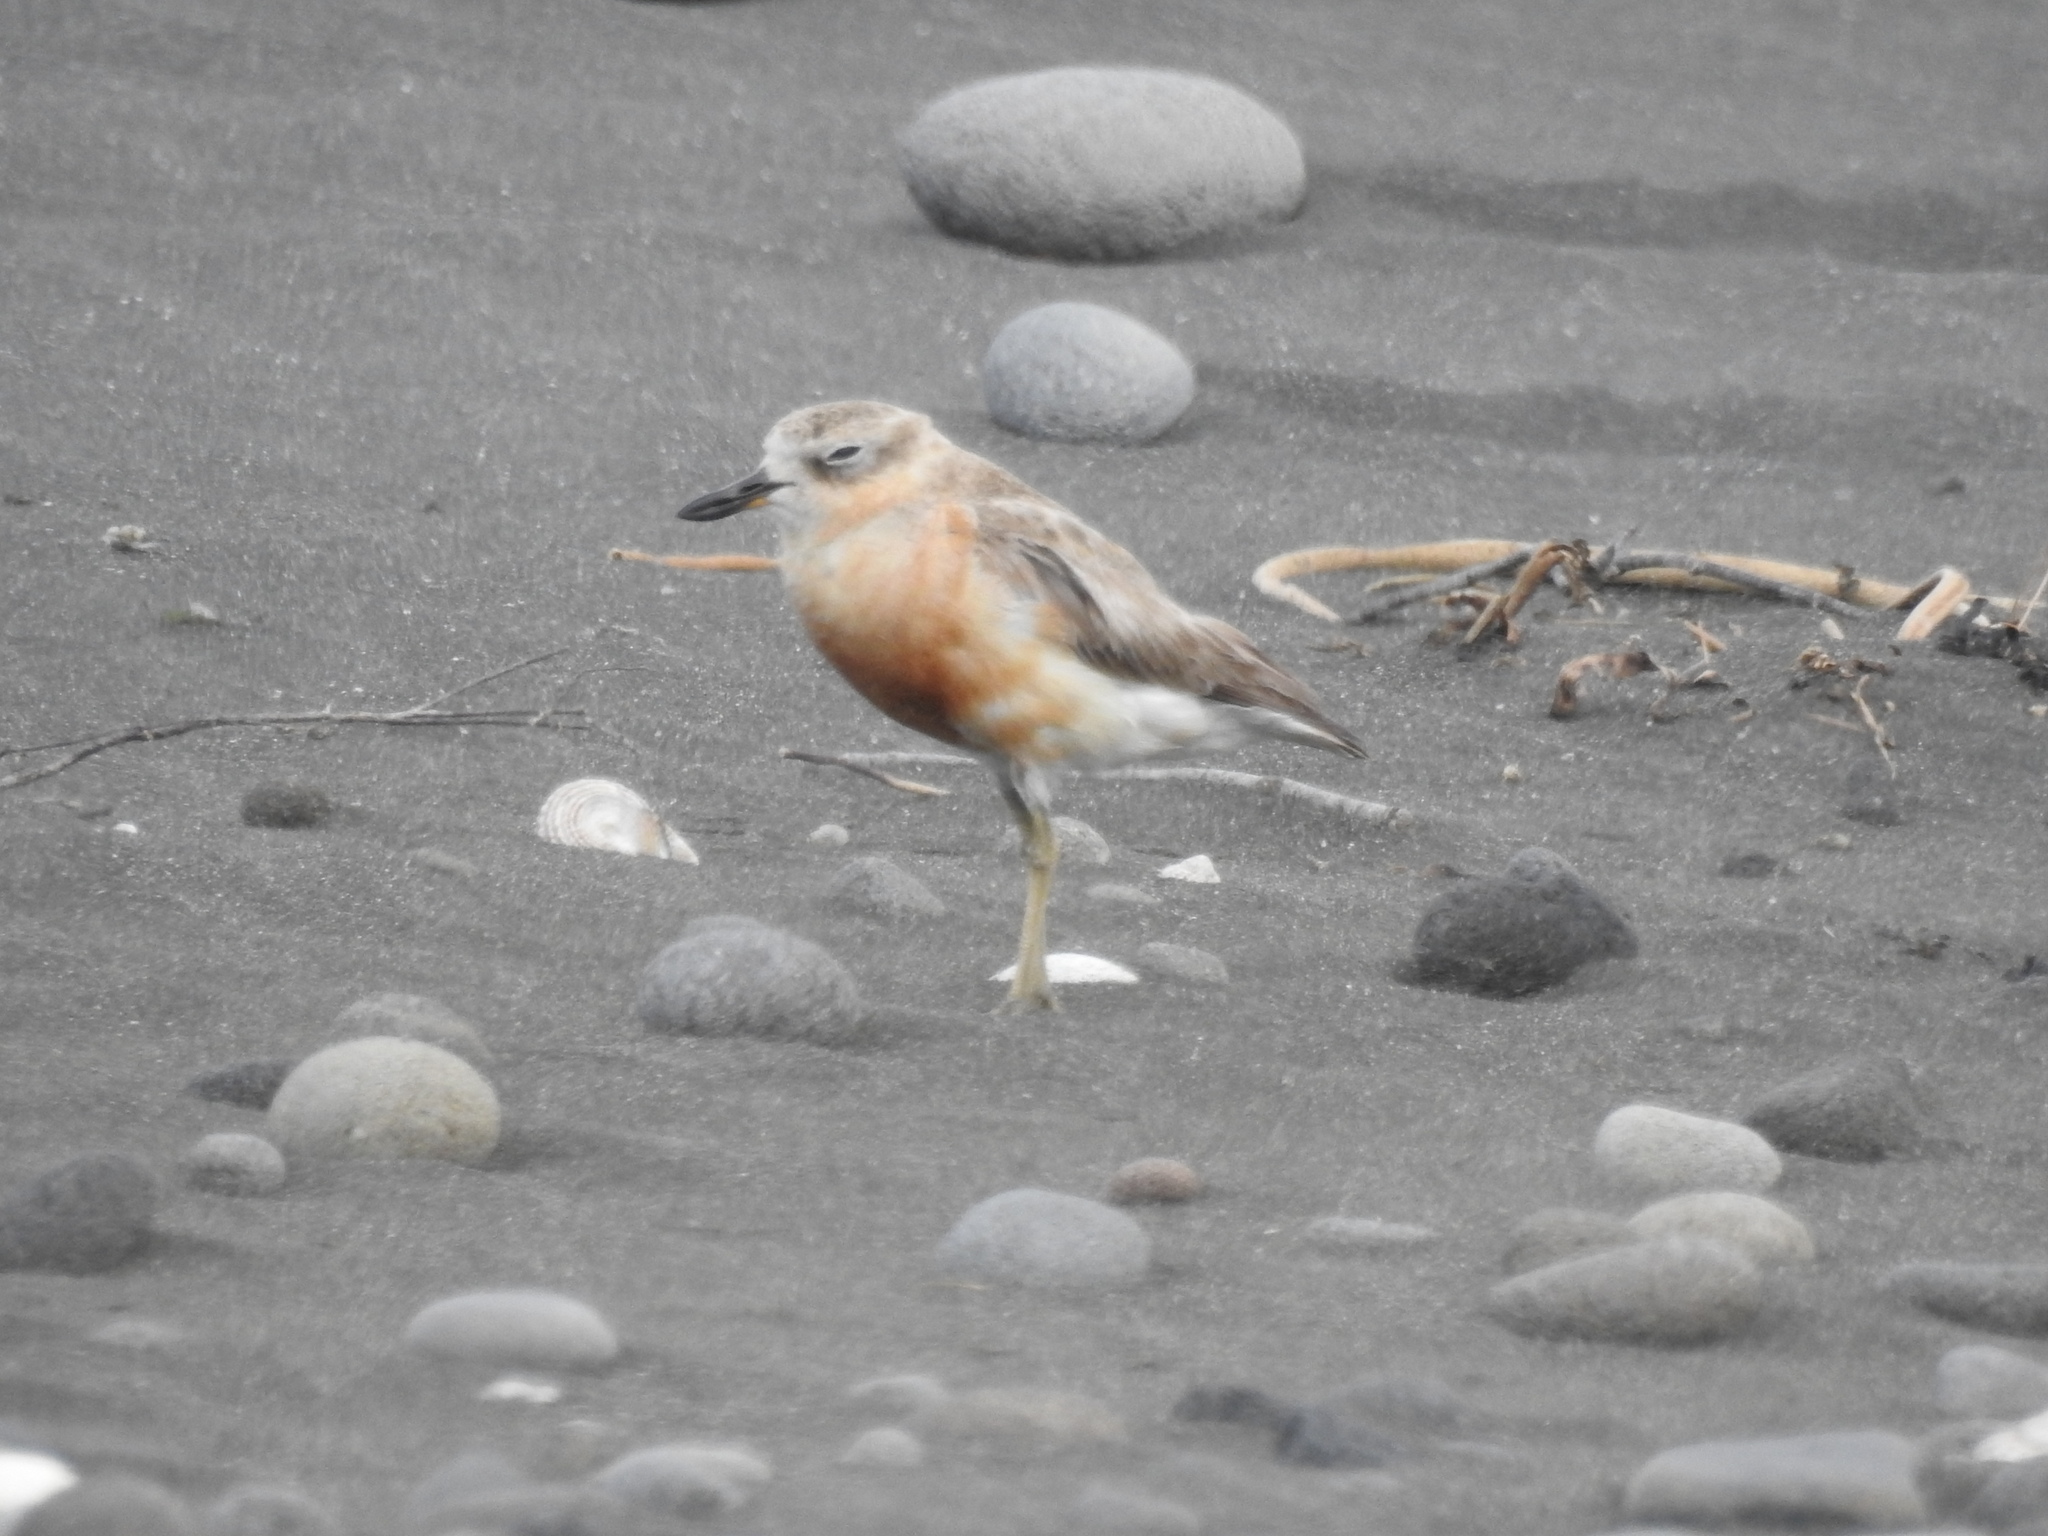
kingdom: Animalia
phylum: Chordata
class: Aves
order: Charadriiformes
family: Charadriidae
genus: Anarhynchus
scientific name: Anarhynchus
